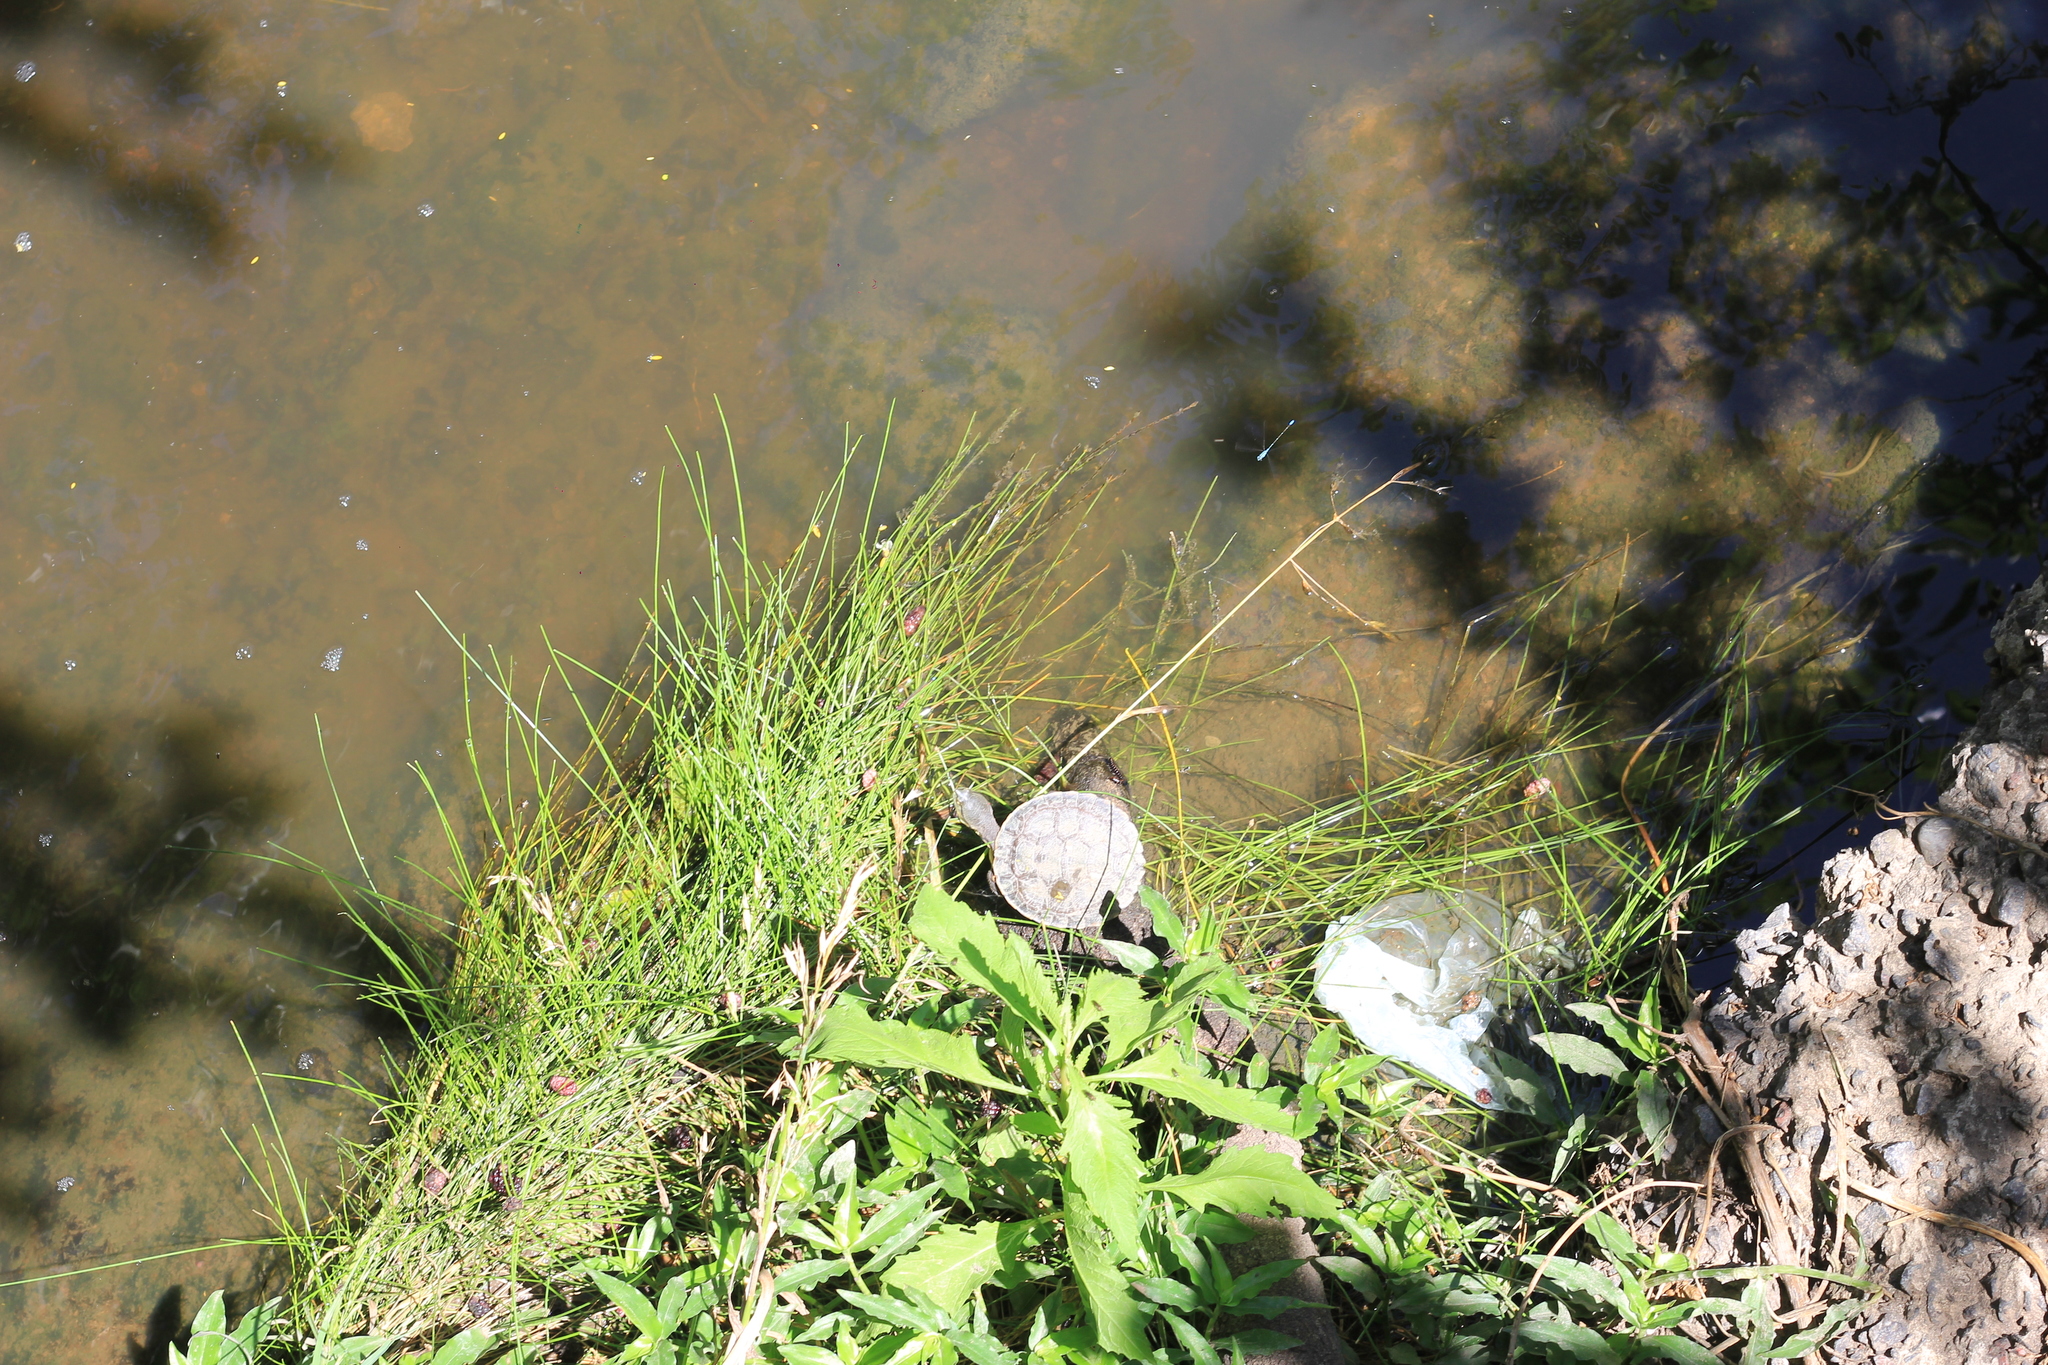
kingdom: Animalia
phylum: Chordata
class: Testudines
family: Chelidae
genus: Phrynops
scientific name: Phrynops hilarii
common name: Side-necked turtle of saint hillaire
